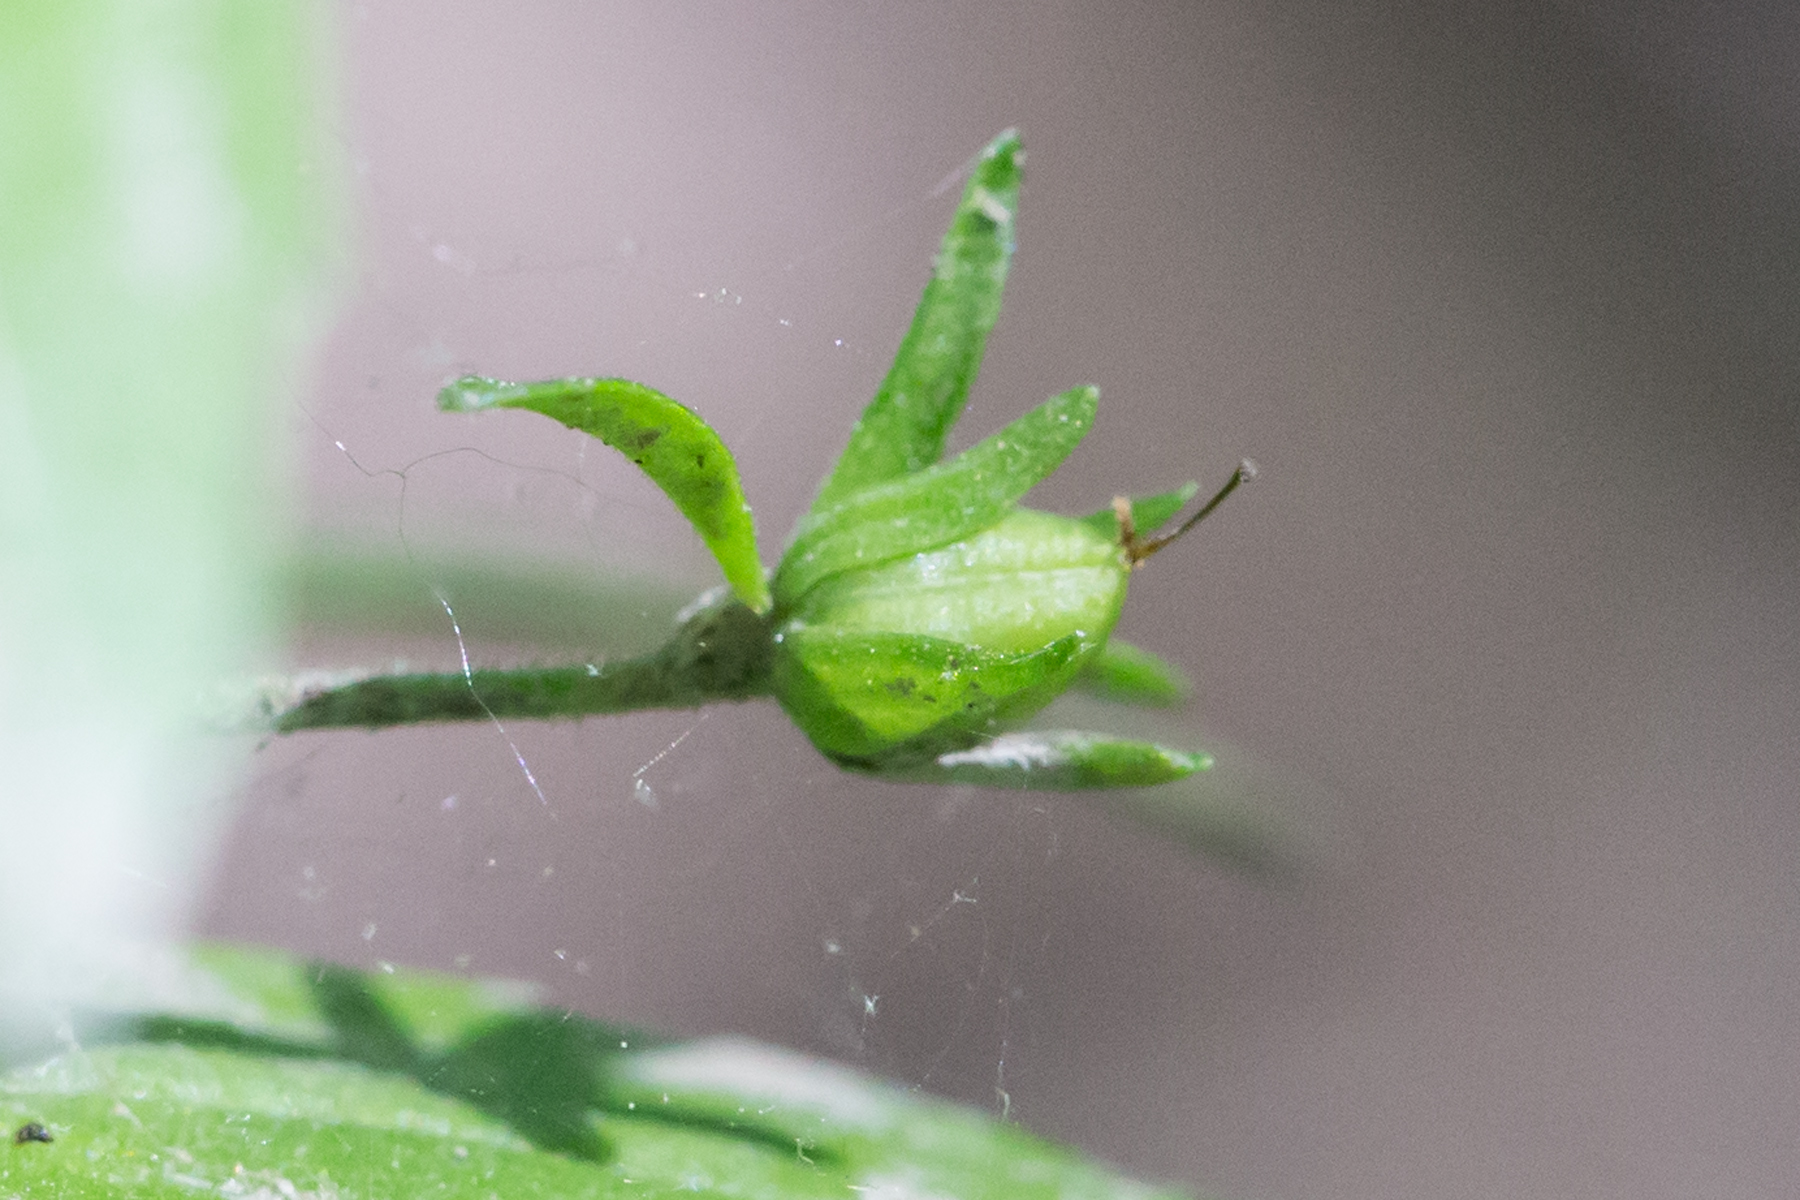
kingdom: Plantae
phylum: Tracheophyta
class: Magnoliopsida
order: Lamiales
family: Plantaginaceae
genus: Gratiola
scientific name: Gratiola neglecta
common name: American hedge-hyssop
